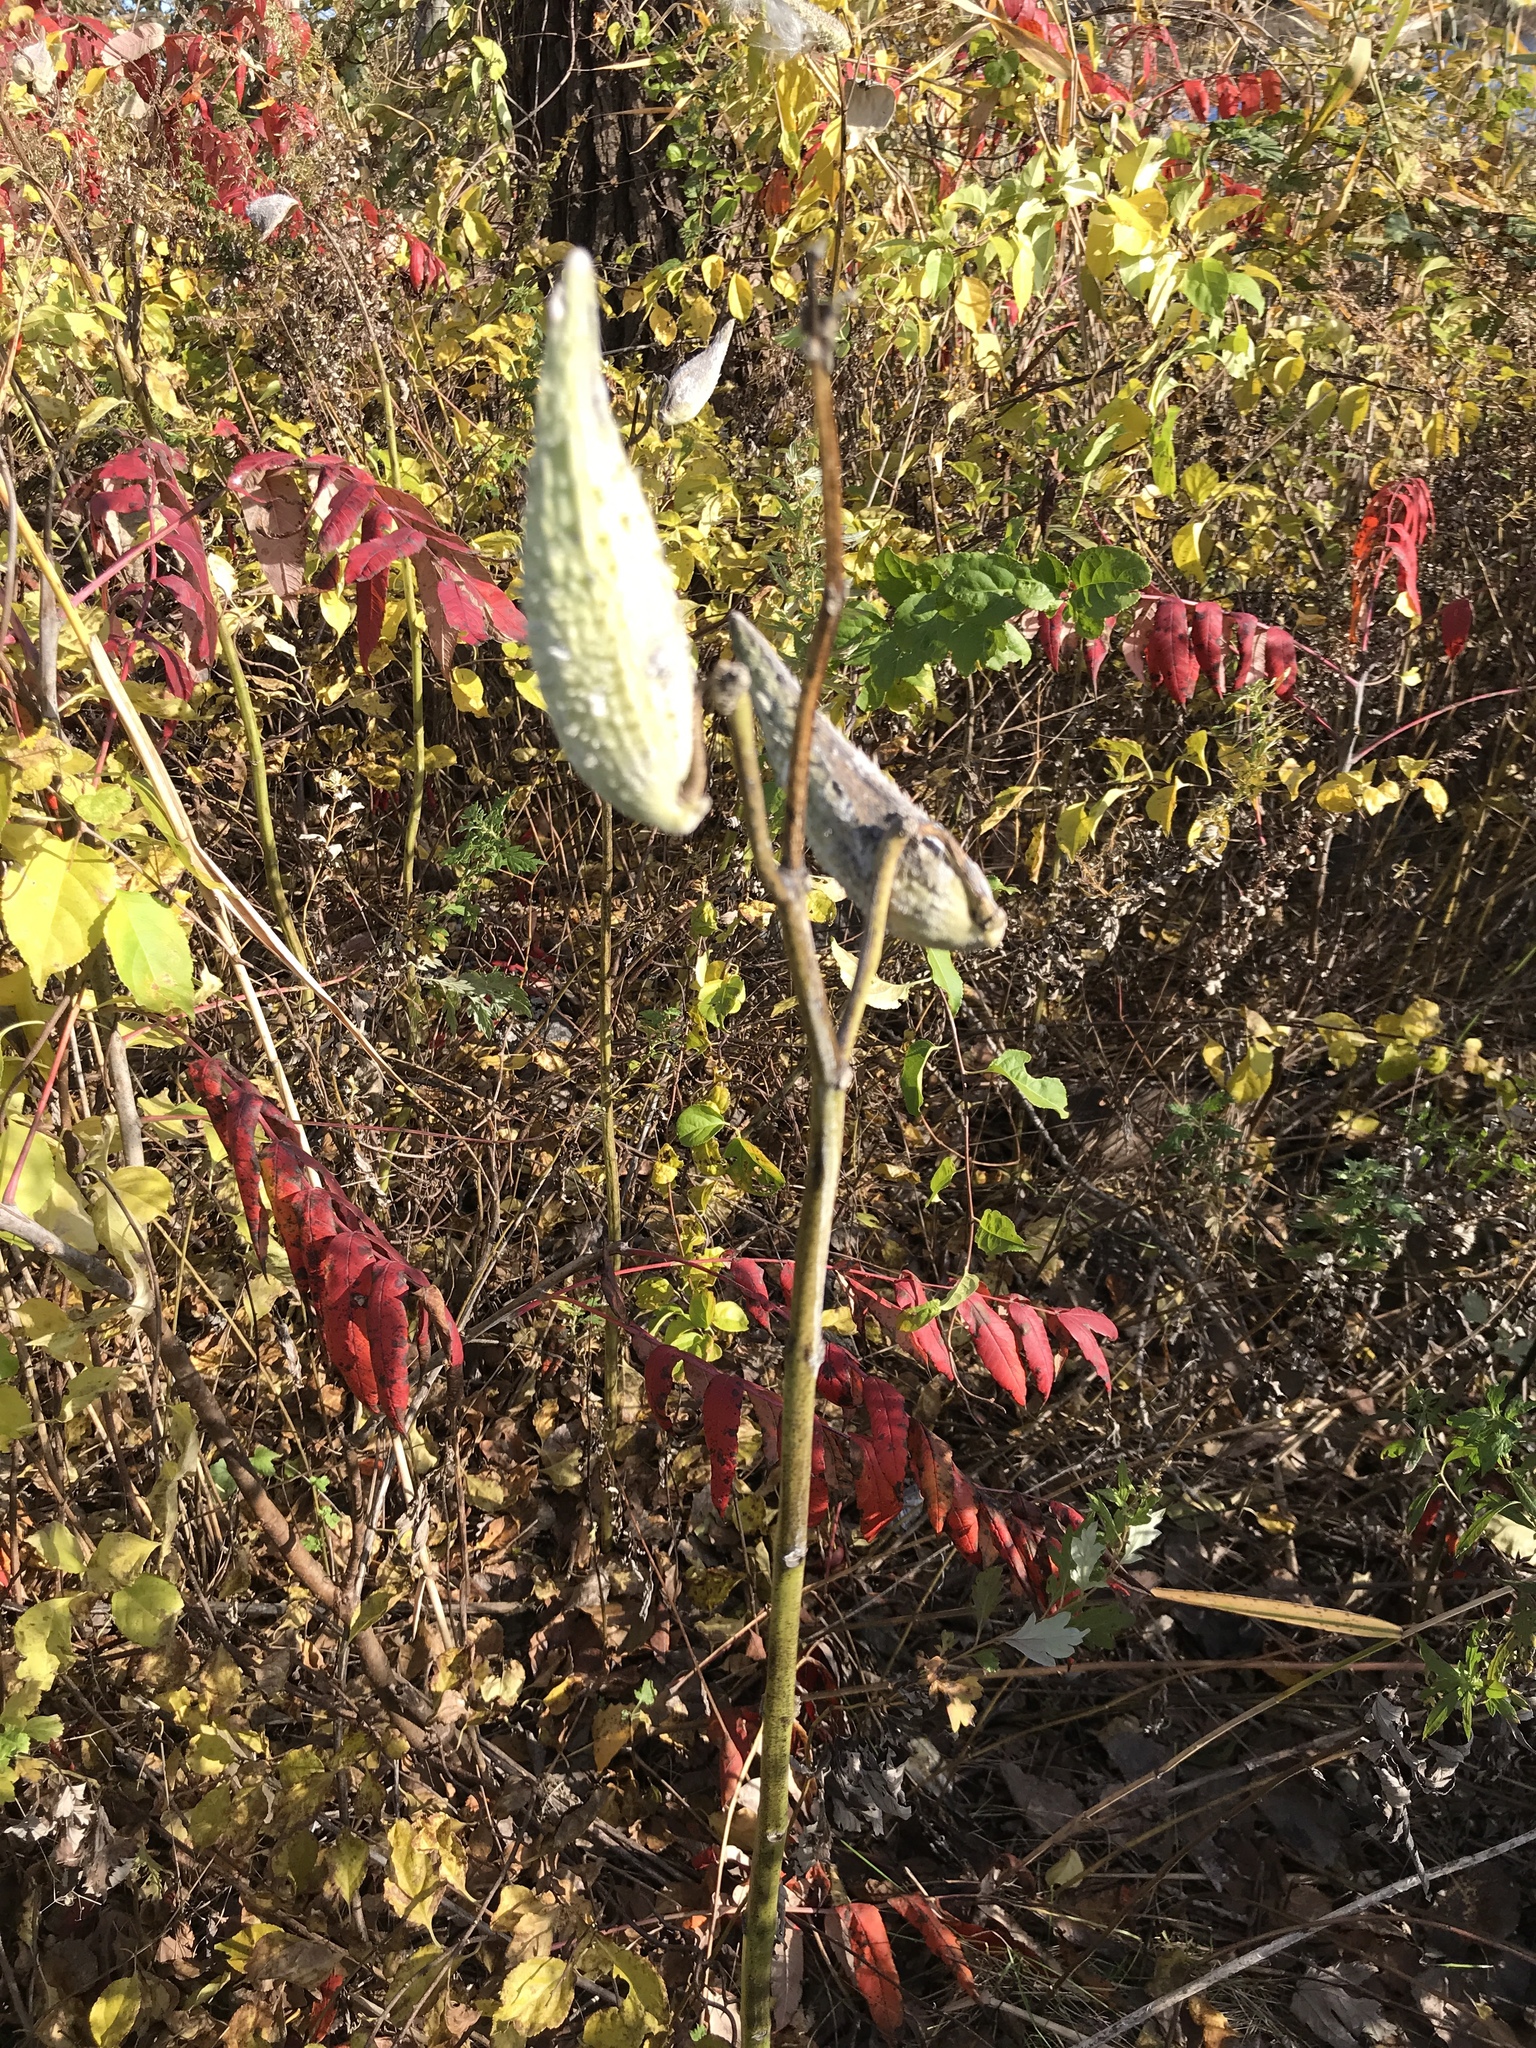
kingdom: Plantae
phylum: Tracheophyta
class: Magnoliopsida
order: Gentianales
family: Apocynaceae
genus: Asclepias
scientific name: Asclepias syriaca
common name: Common milkweed
